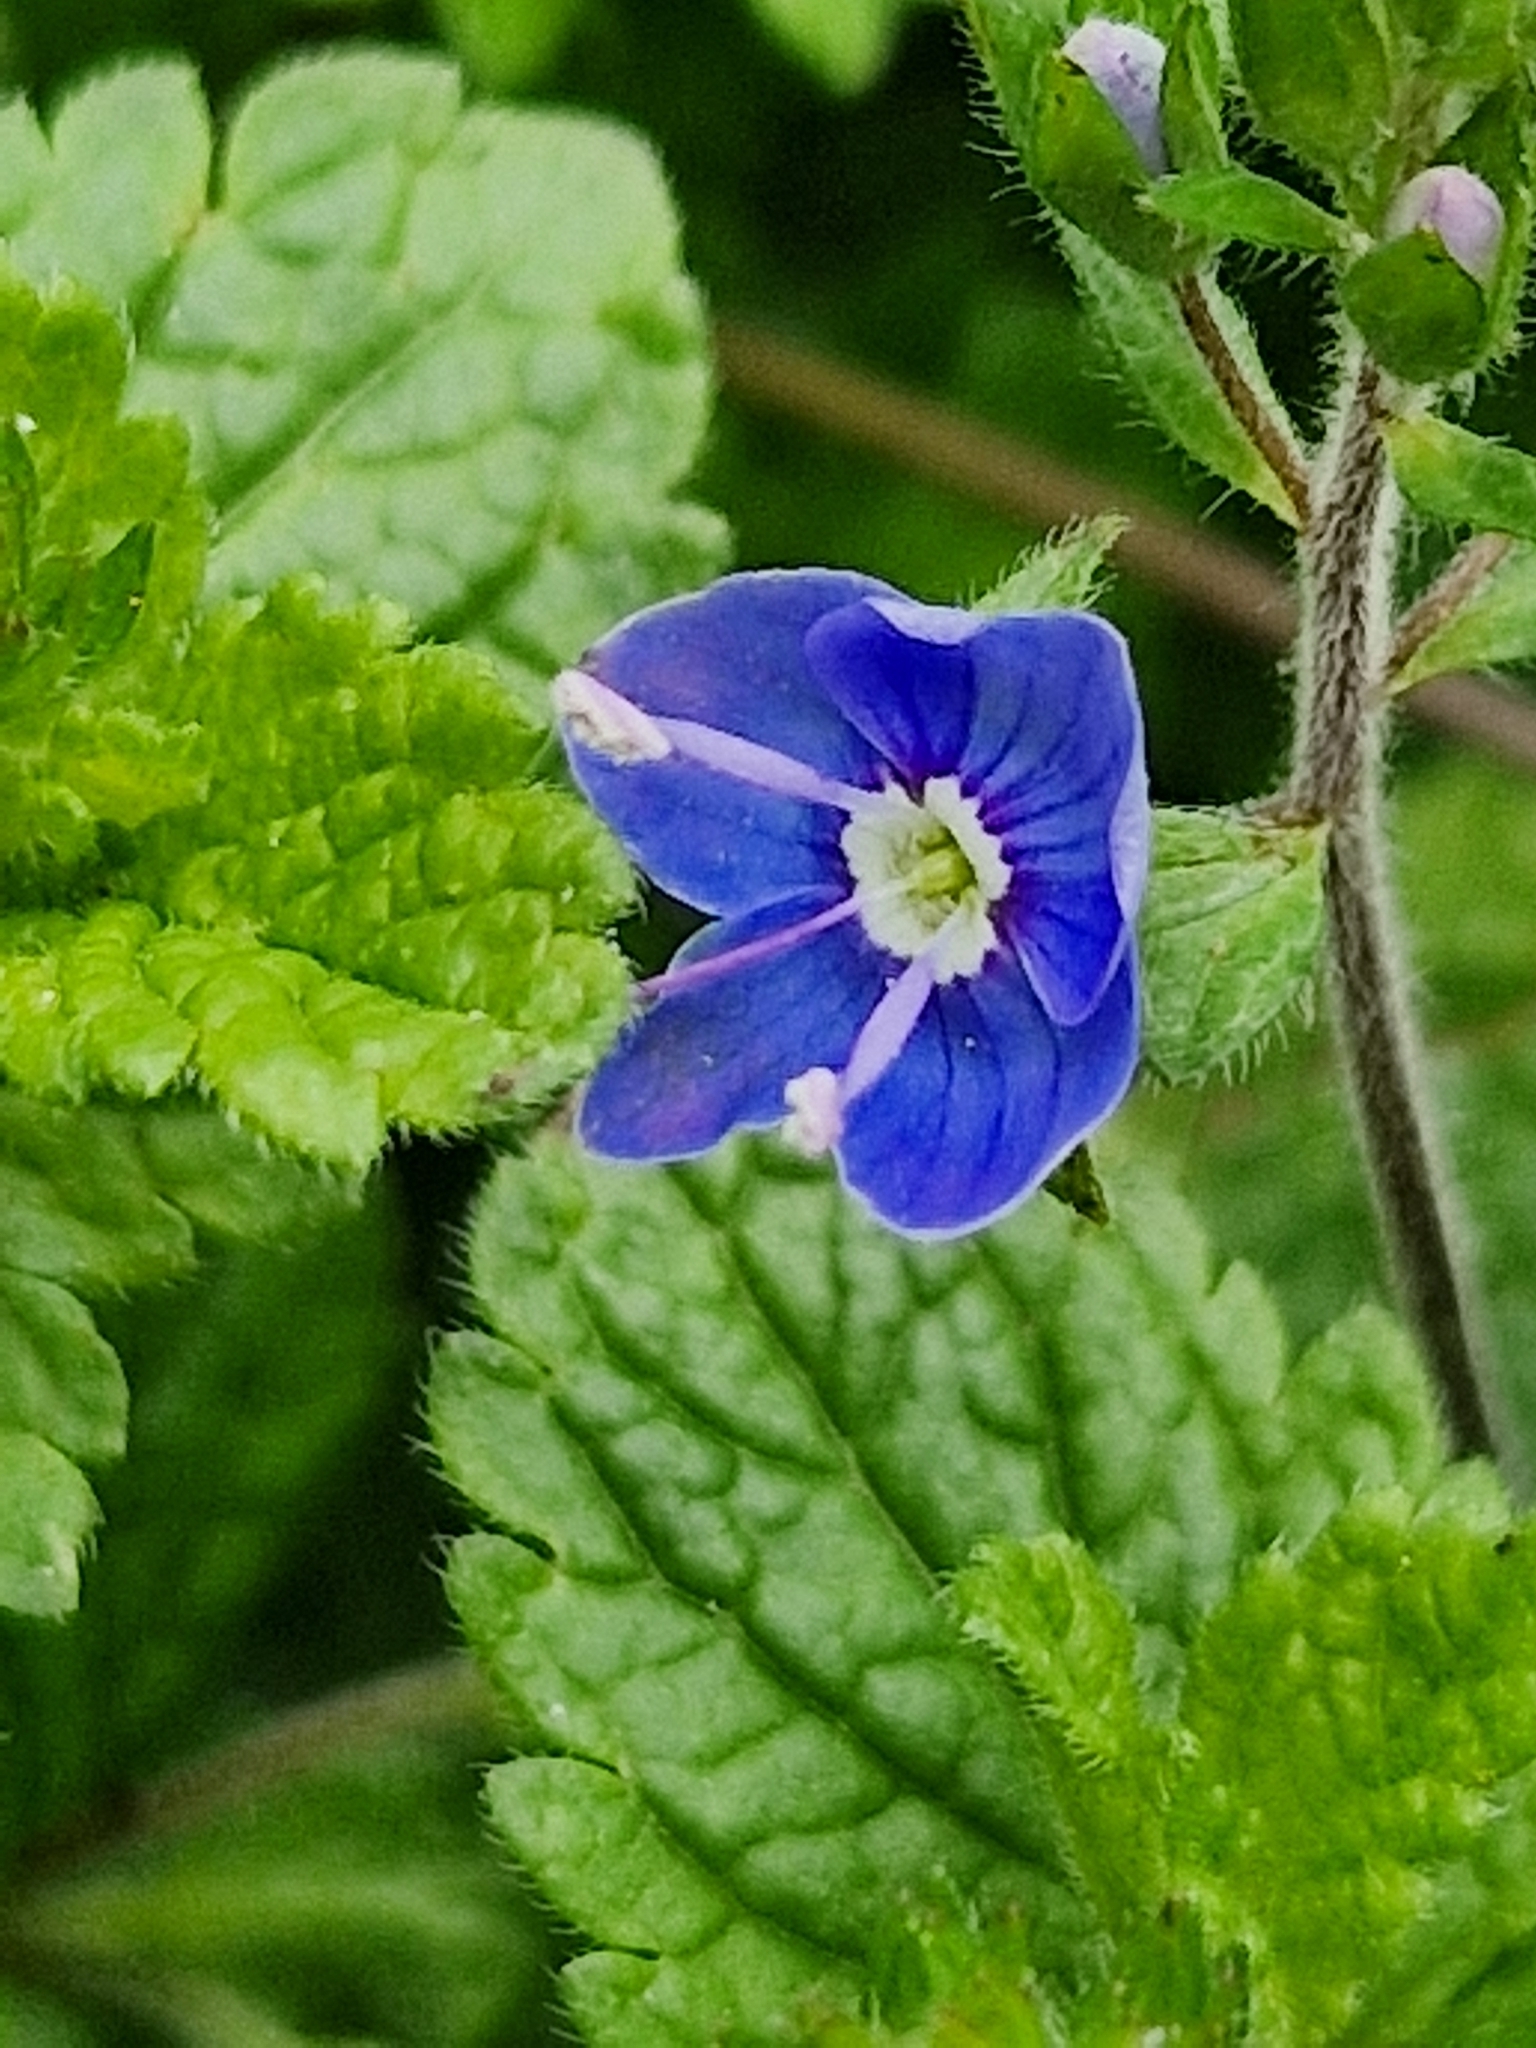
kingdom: Plantae
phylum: Tracheophyta
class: Magnoliopsida
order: Lamiales
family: Plantaginaceae
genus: Veronica
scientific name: Veronica chamaedrys
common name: Germander speedwell
